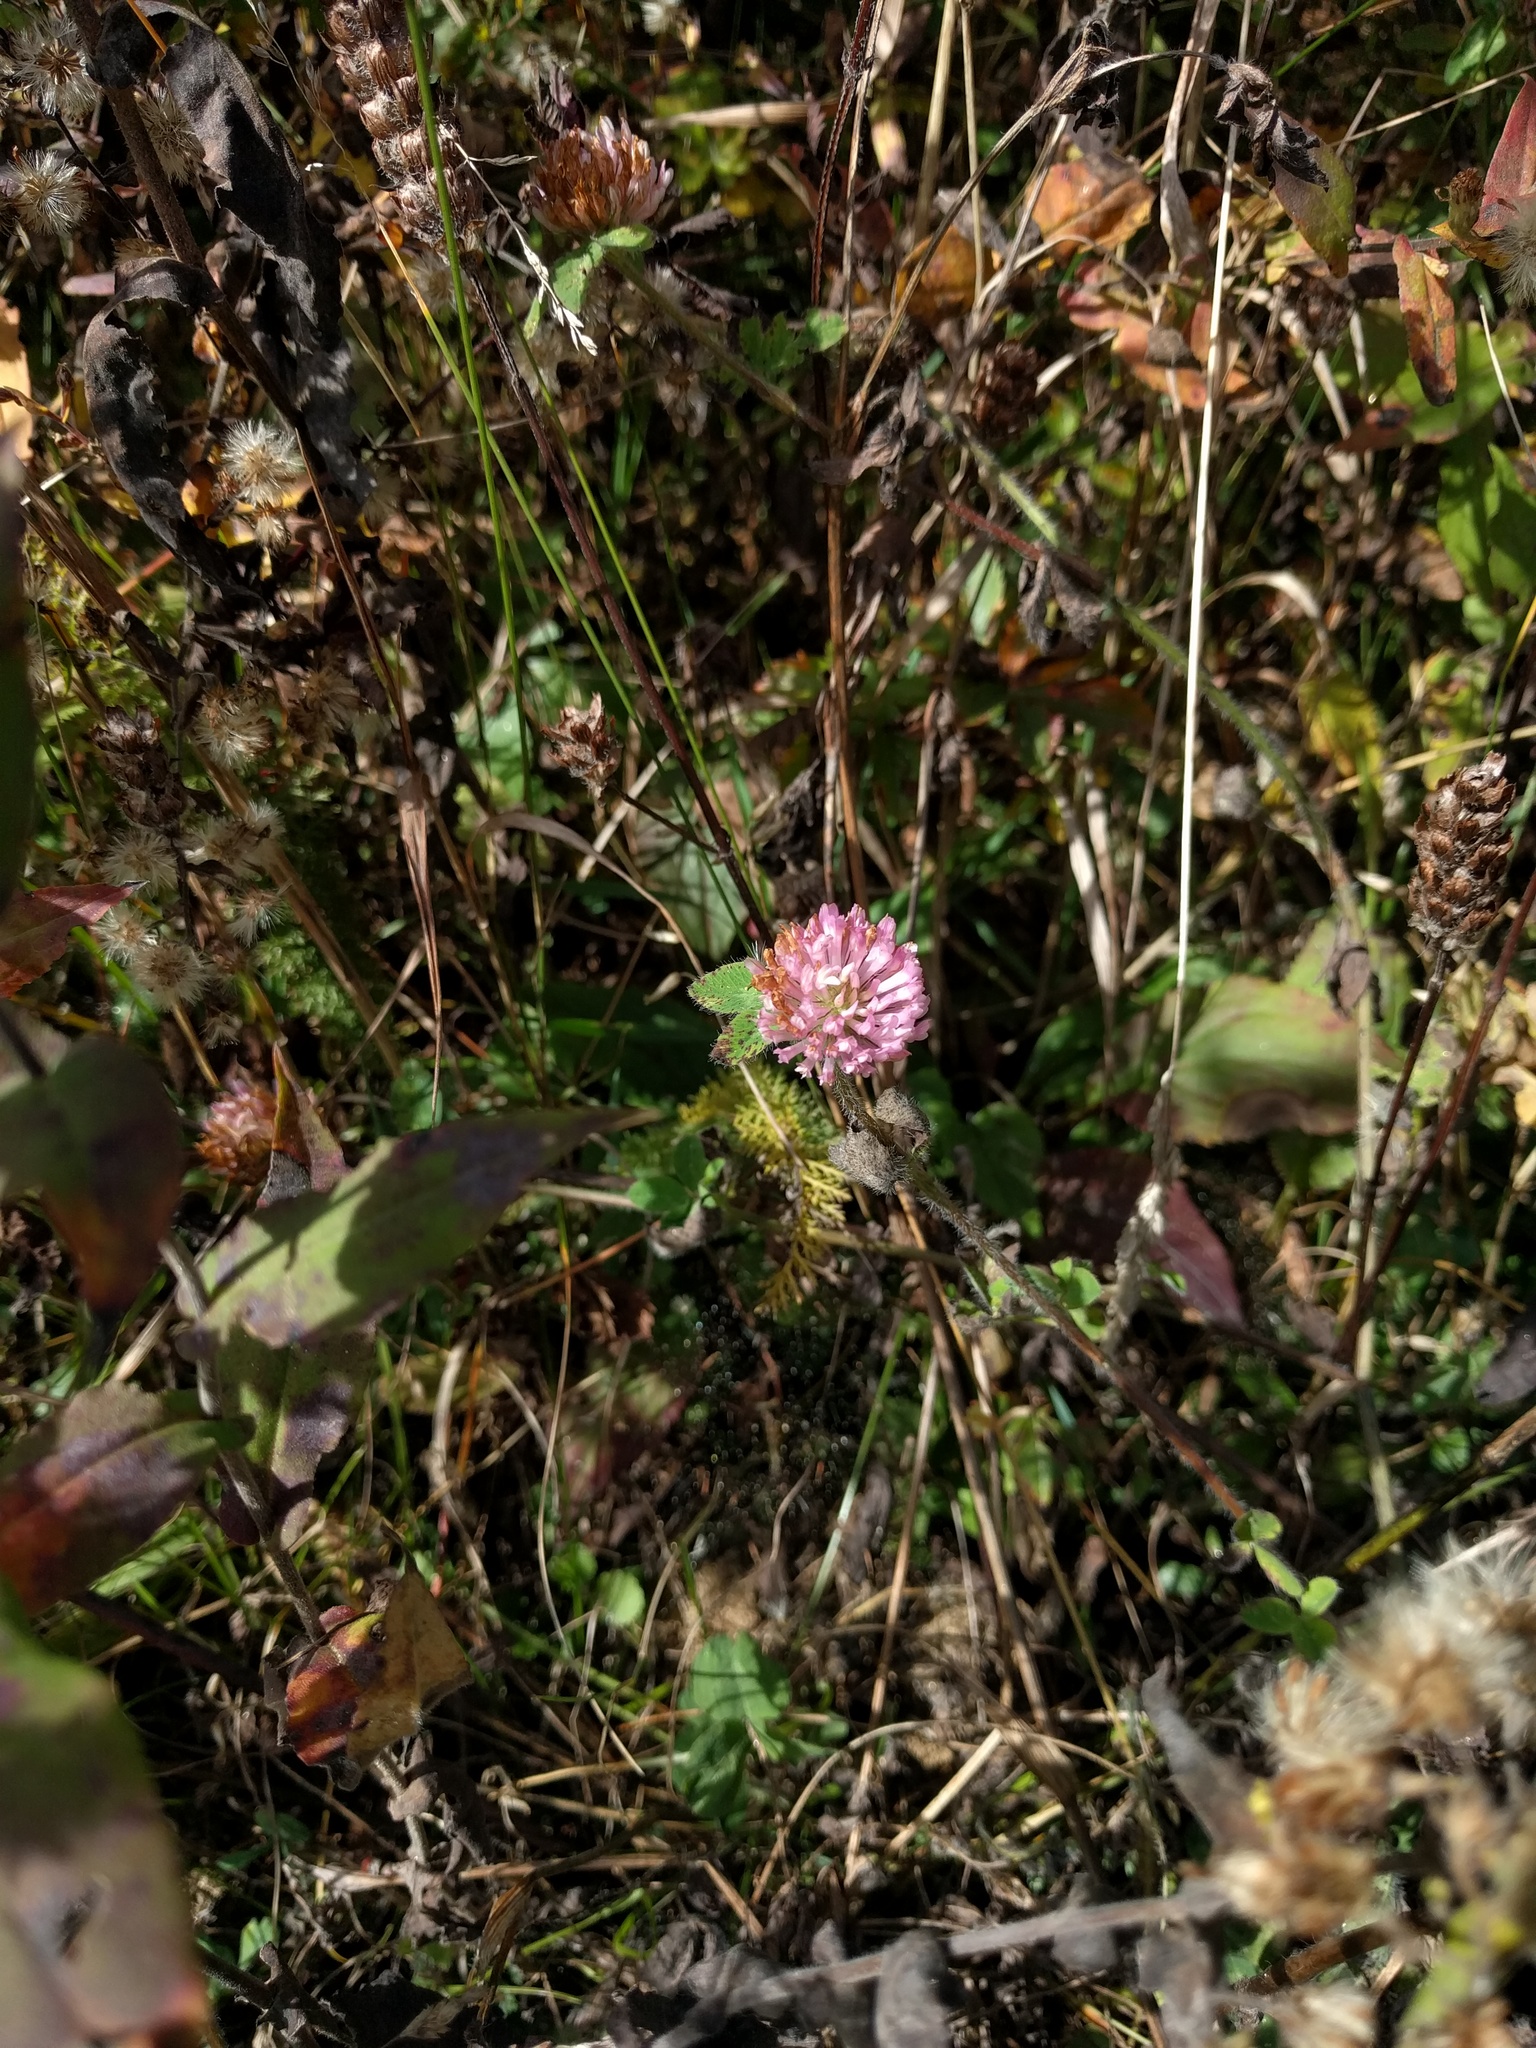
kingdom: Plantae
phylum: Tracheophyta
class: Magnoliopsida
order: Fabales
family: Fabaceae
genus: Trifolium
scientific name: Trifolium pratense
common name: Red clover
